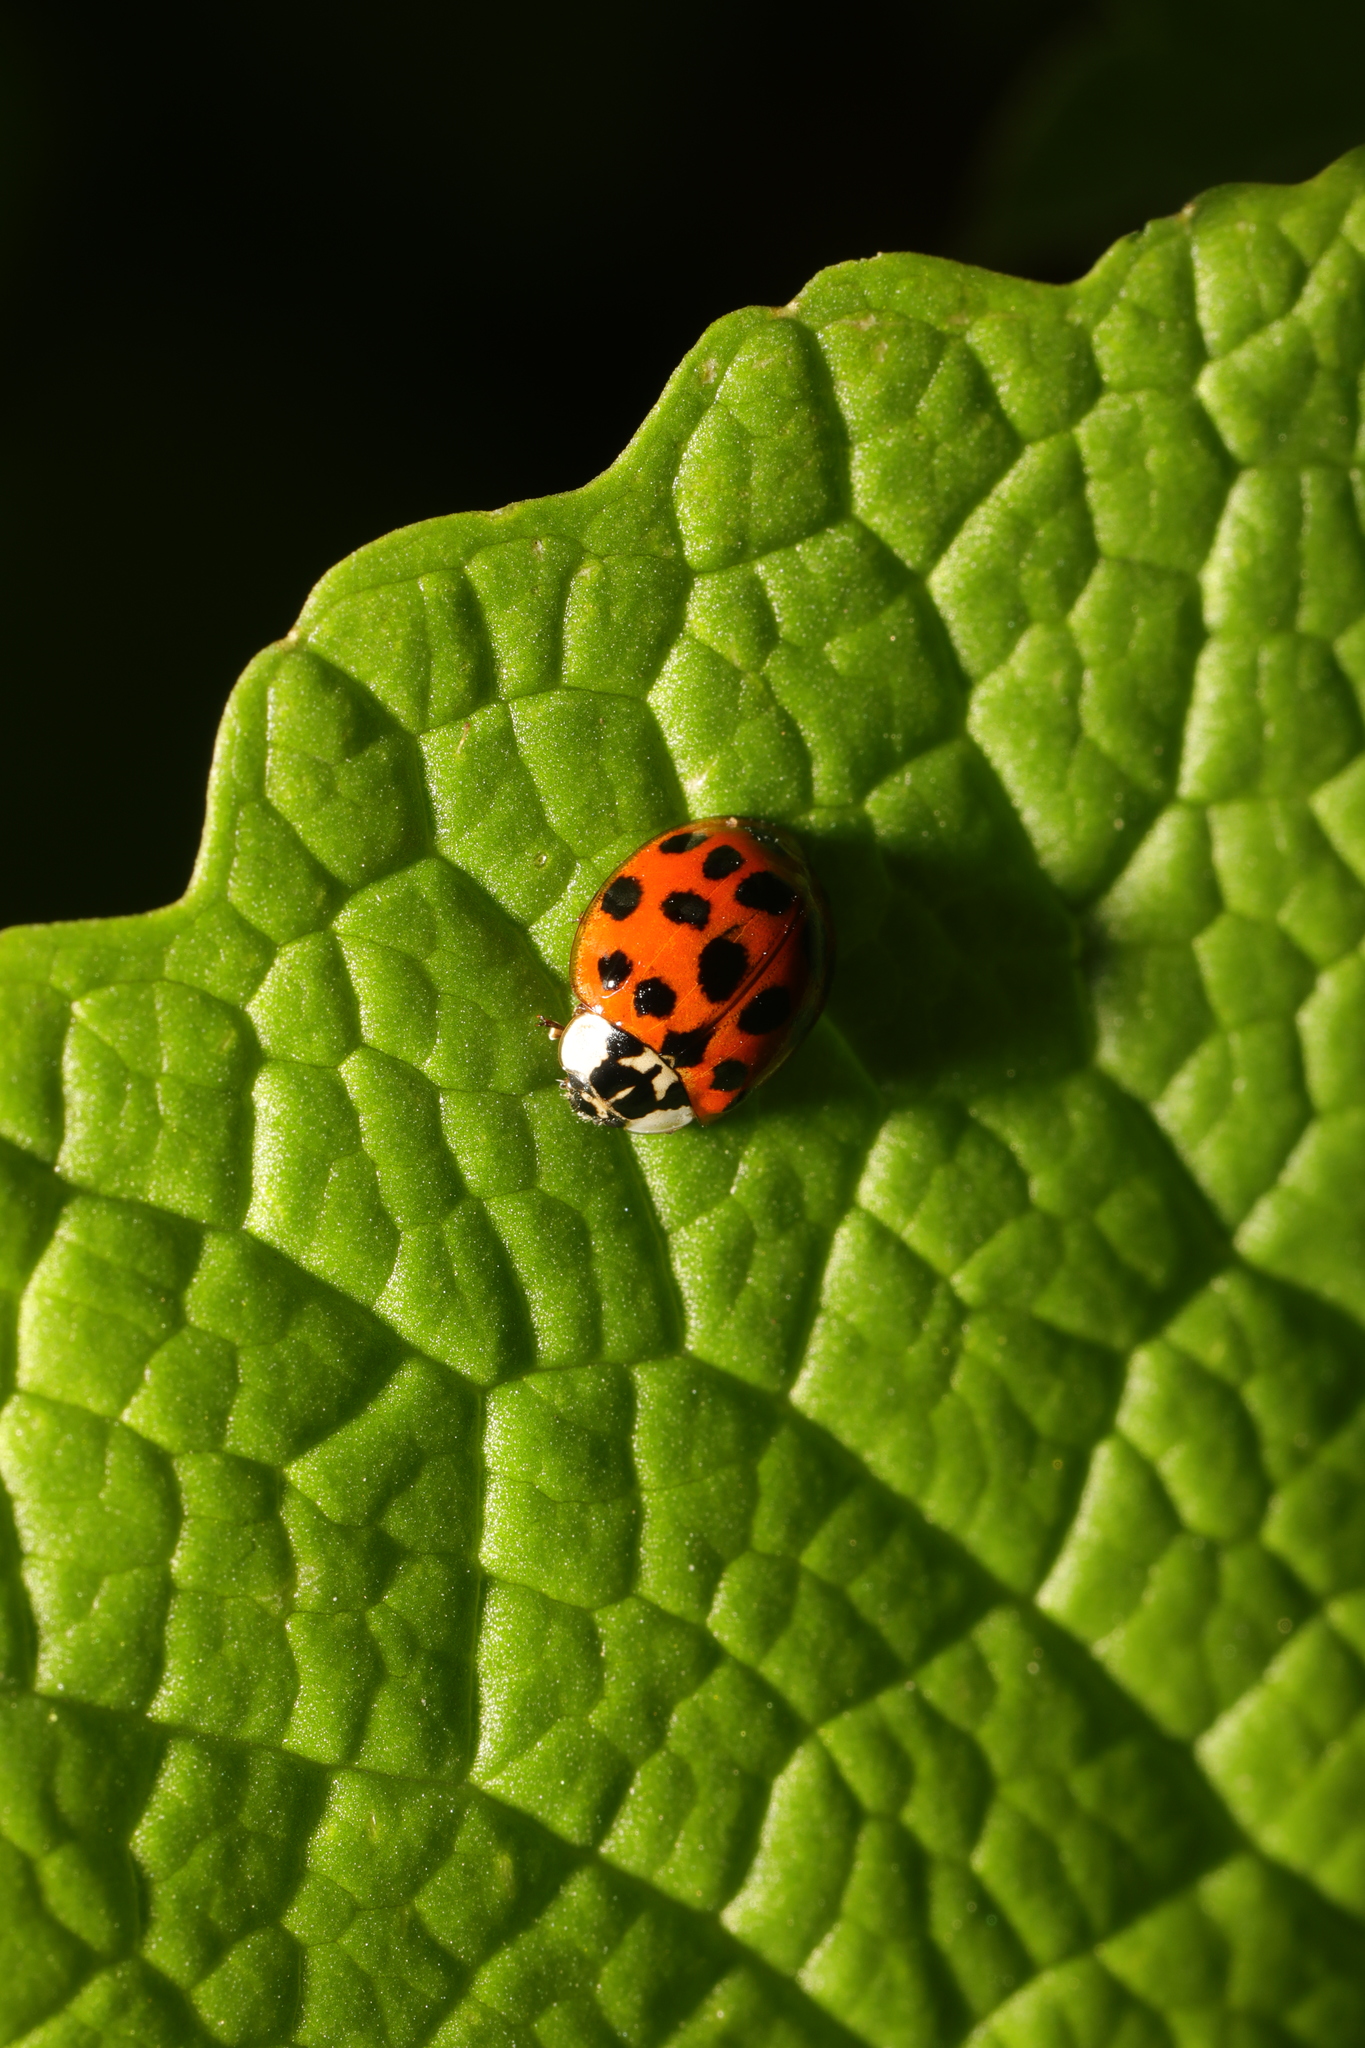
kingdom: Animalia
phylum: Arthropoda
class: Insecta
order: Coleoptera
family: Coccinellidae
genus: Harmonia
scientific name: Harmonia axyridis
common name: Harlequin ladybird
